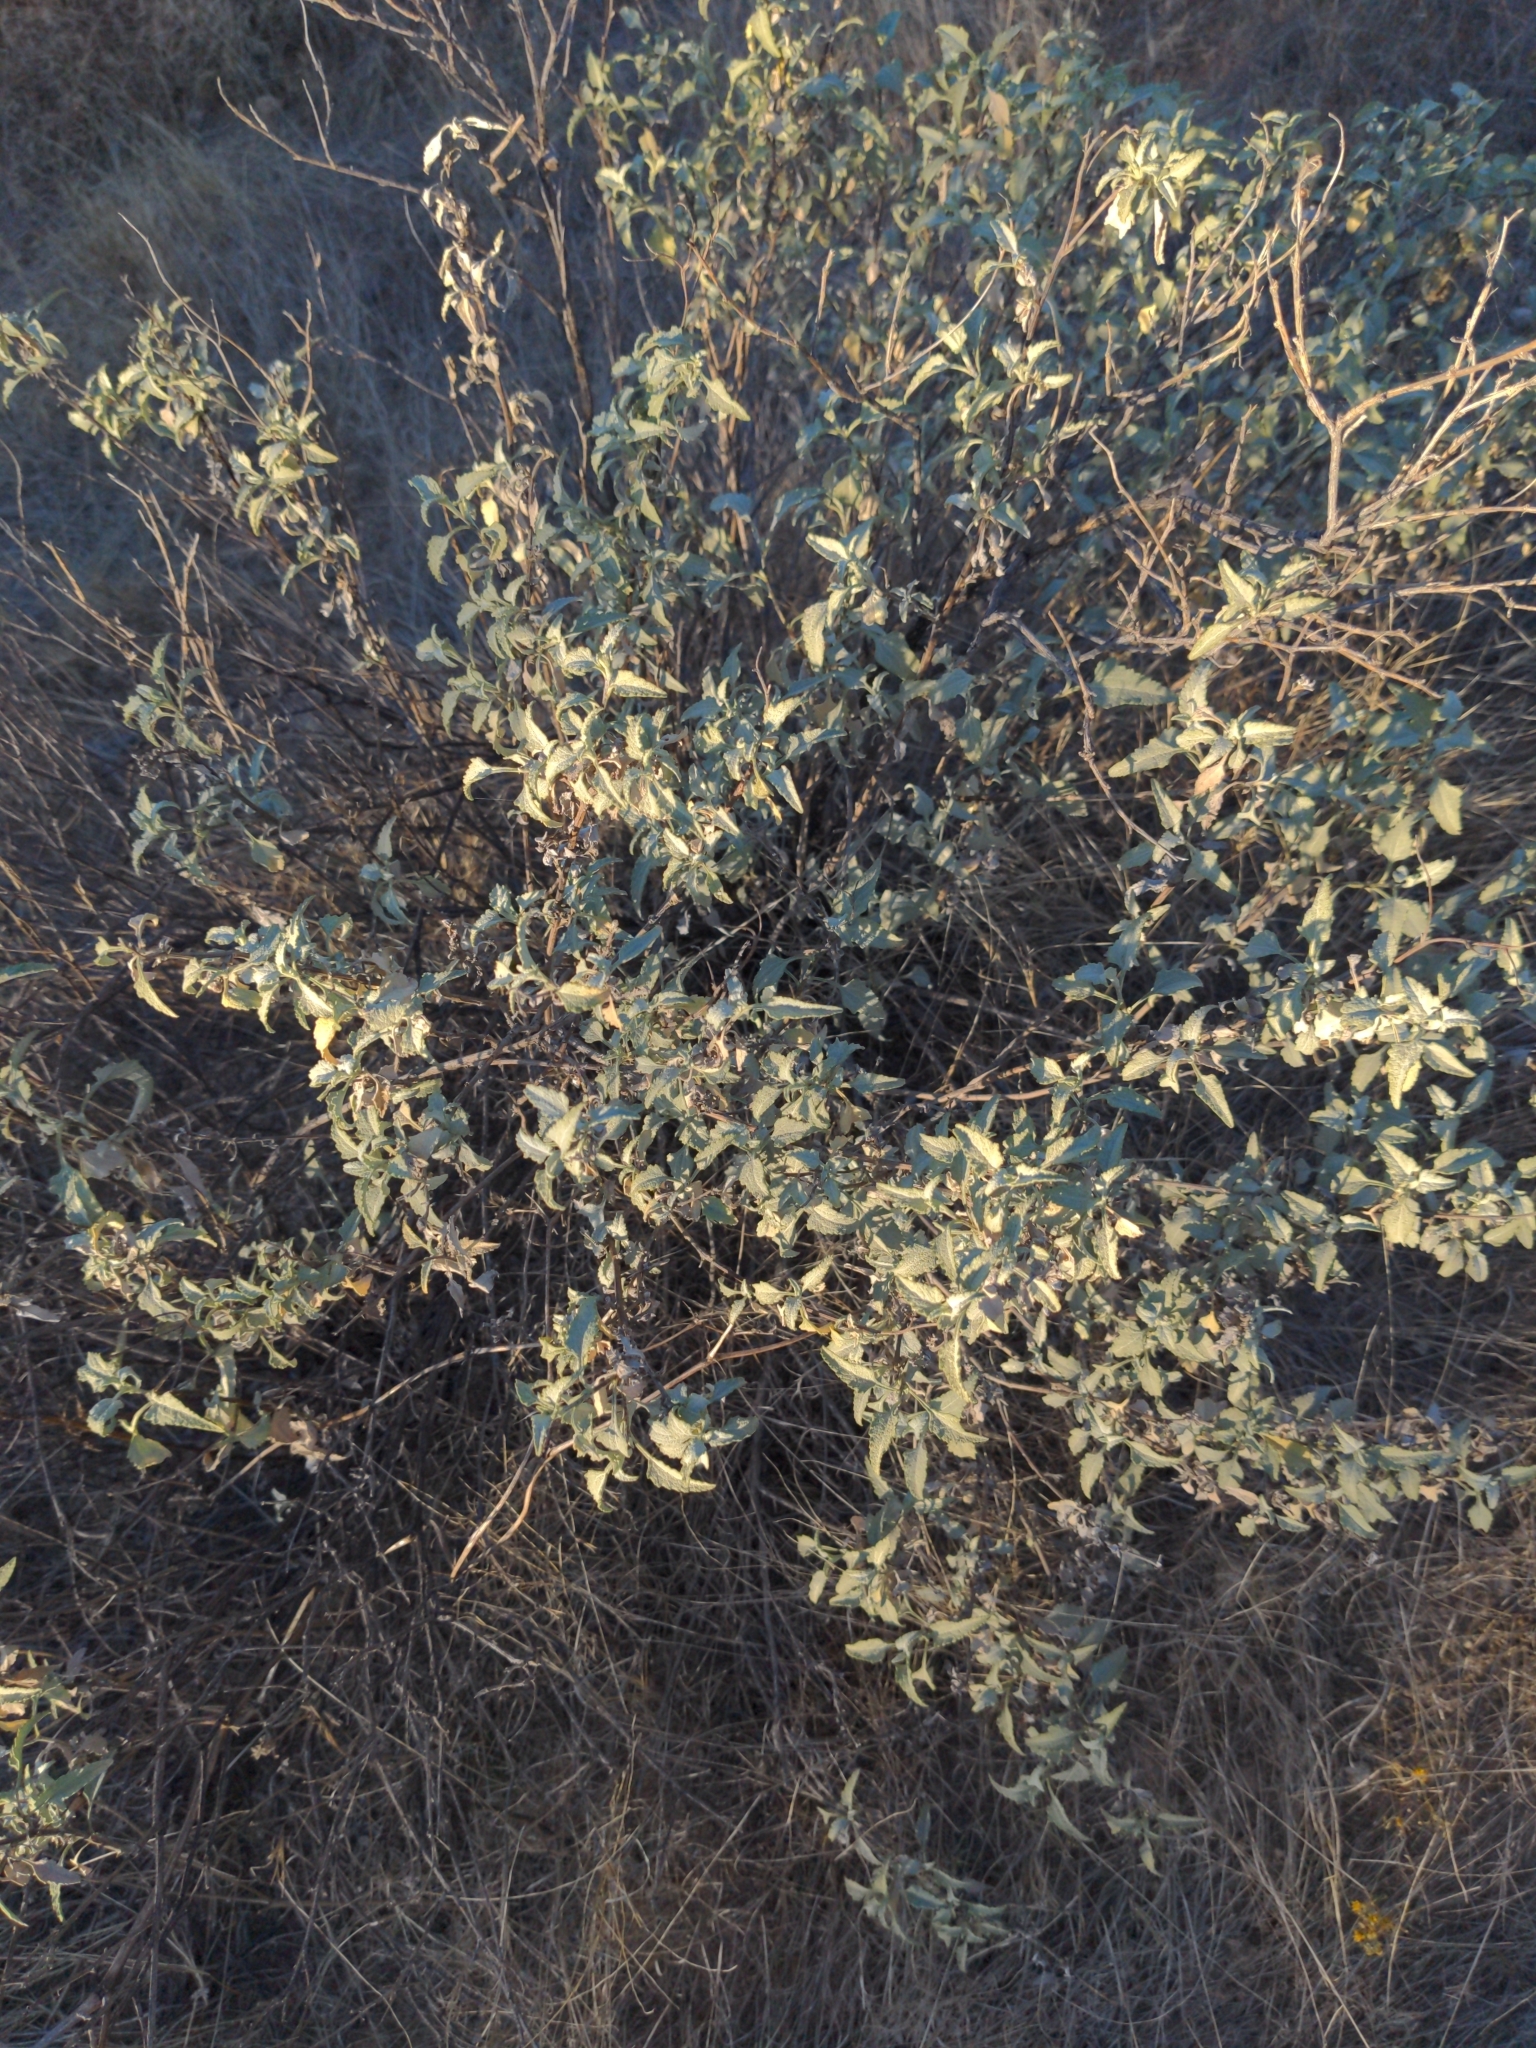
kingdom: Plantae
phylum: Tracheophyta
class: Magnoliopsida
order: Asterales
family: Asteraceae
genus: Ambrosia
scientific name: Ambrosia deltoidea
